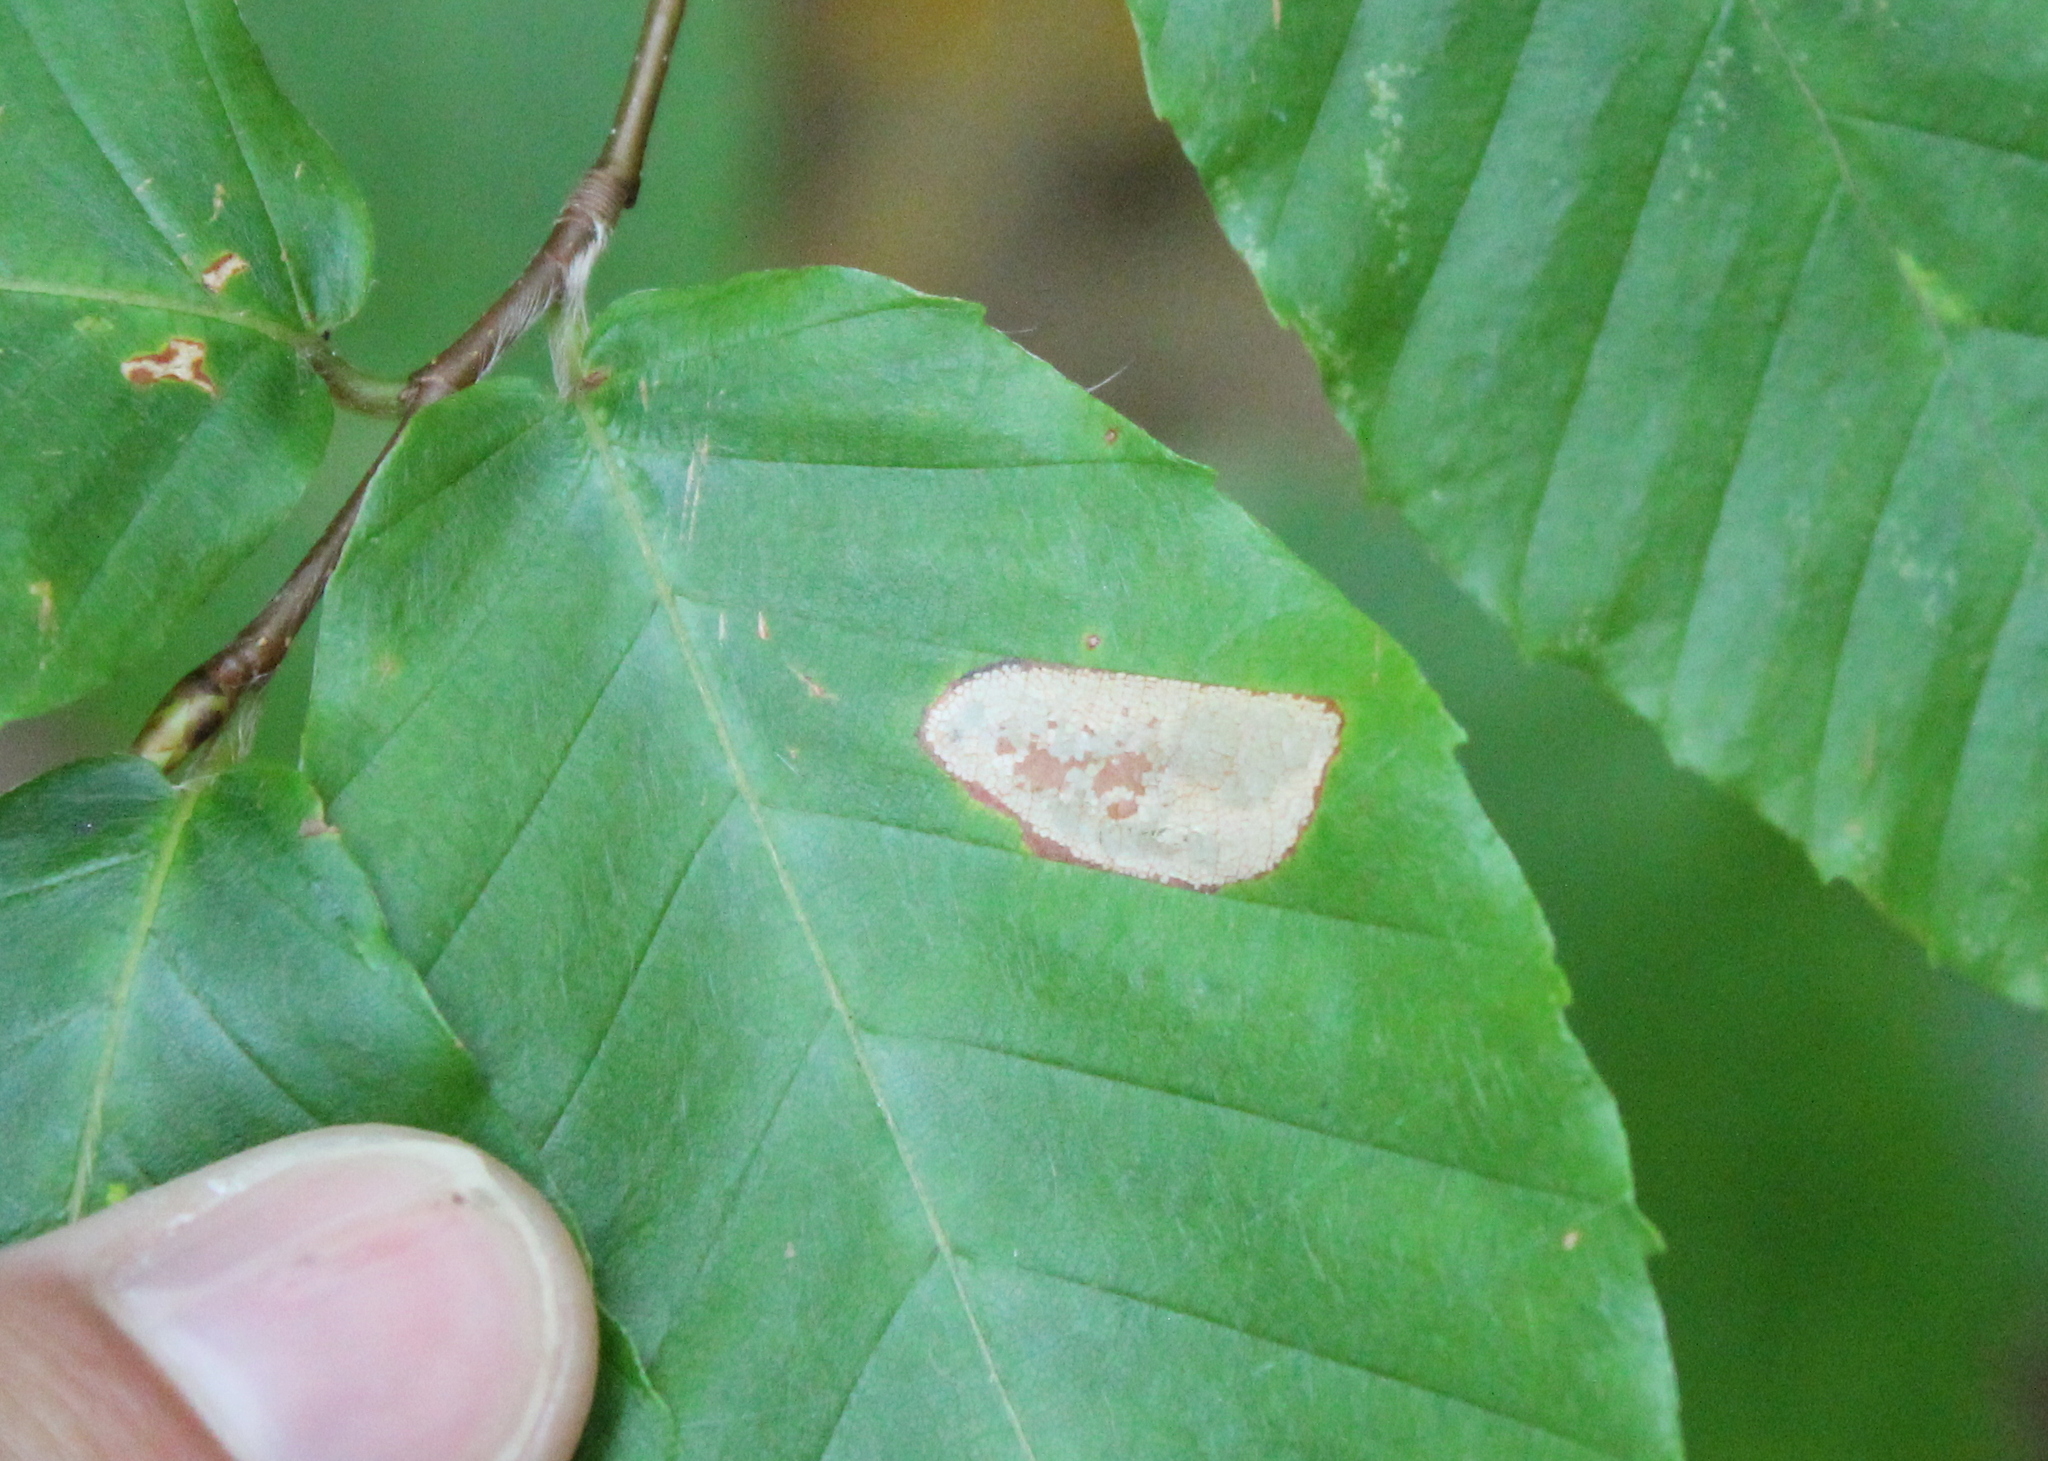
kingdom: Animalia
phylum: Arthropoda
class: Insecta
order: Lepidoptera
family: Gracillariidae
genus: Phyllonorycter
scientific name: Phyllonorycter maestingella
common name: Beech midget
